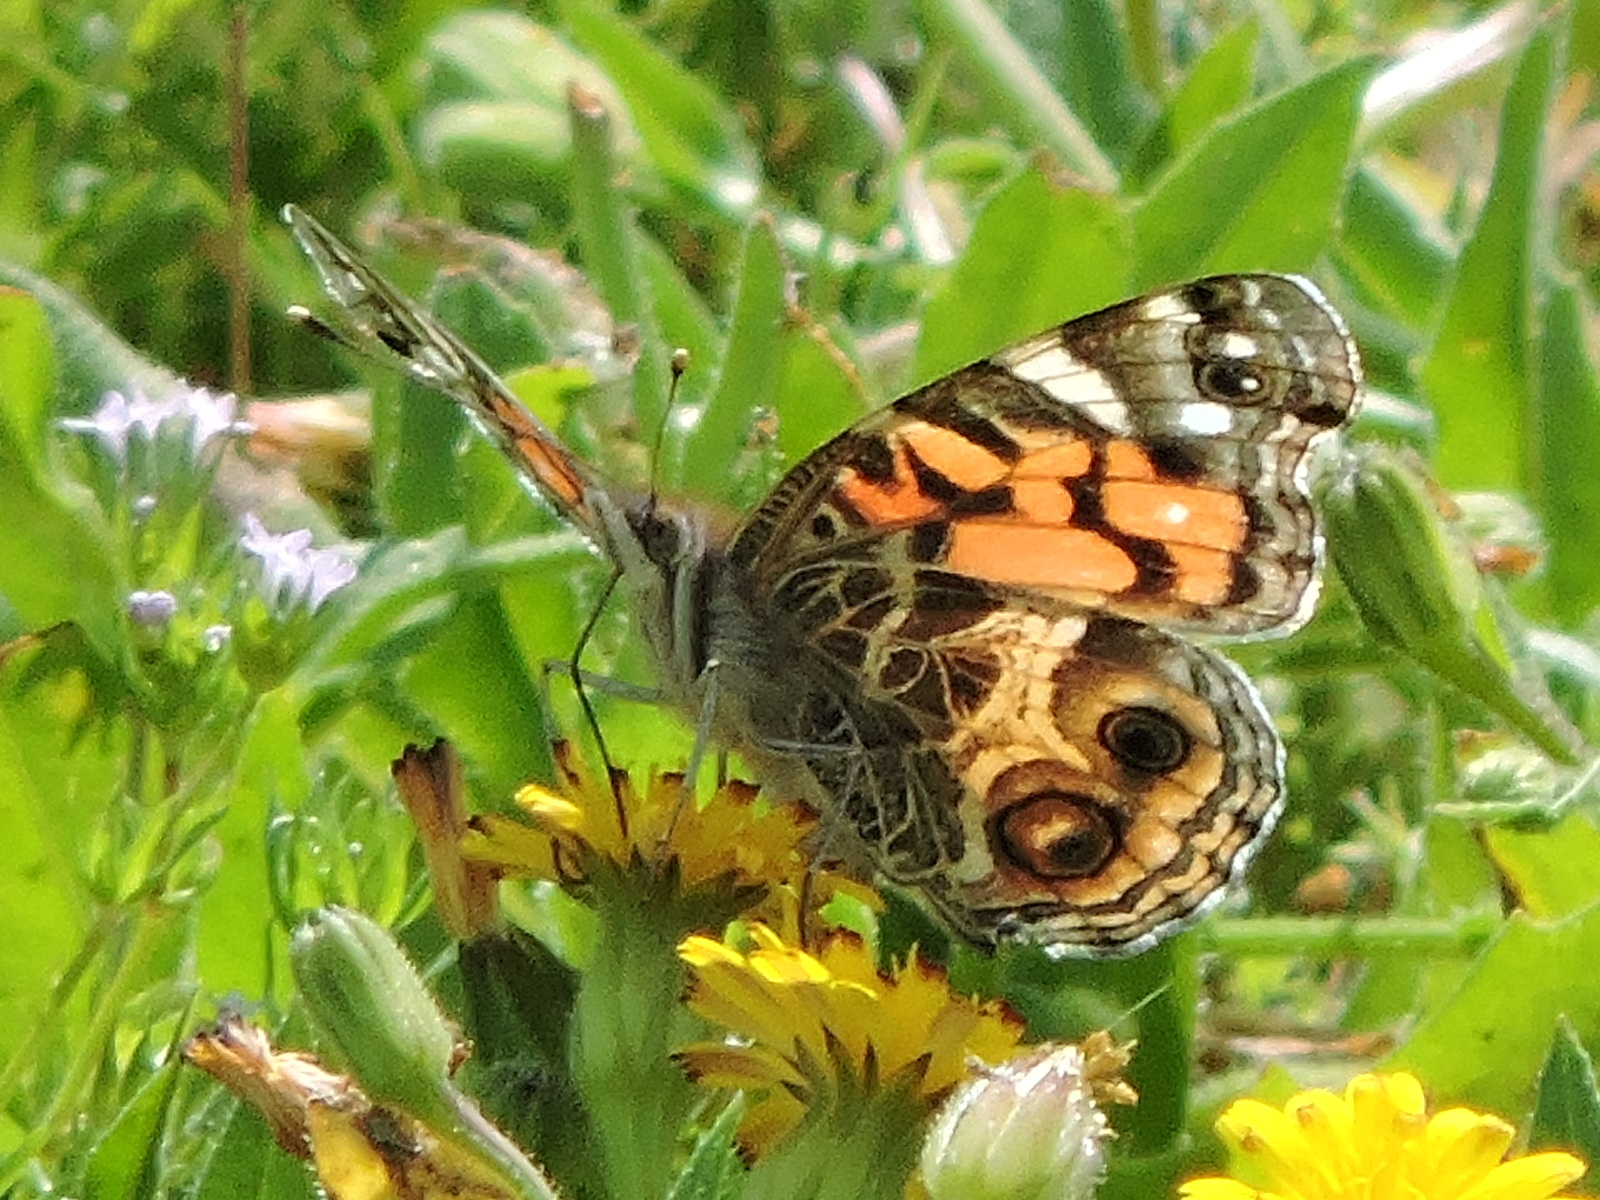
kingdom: Animalia
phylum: Arthropoda
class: Insecta
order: Lepidoptera
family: Nymphalidae
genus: Vanessa
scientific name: Vanessa virginiensis
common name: American lady
